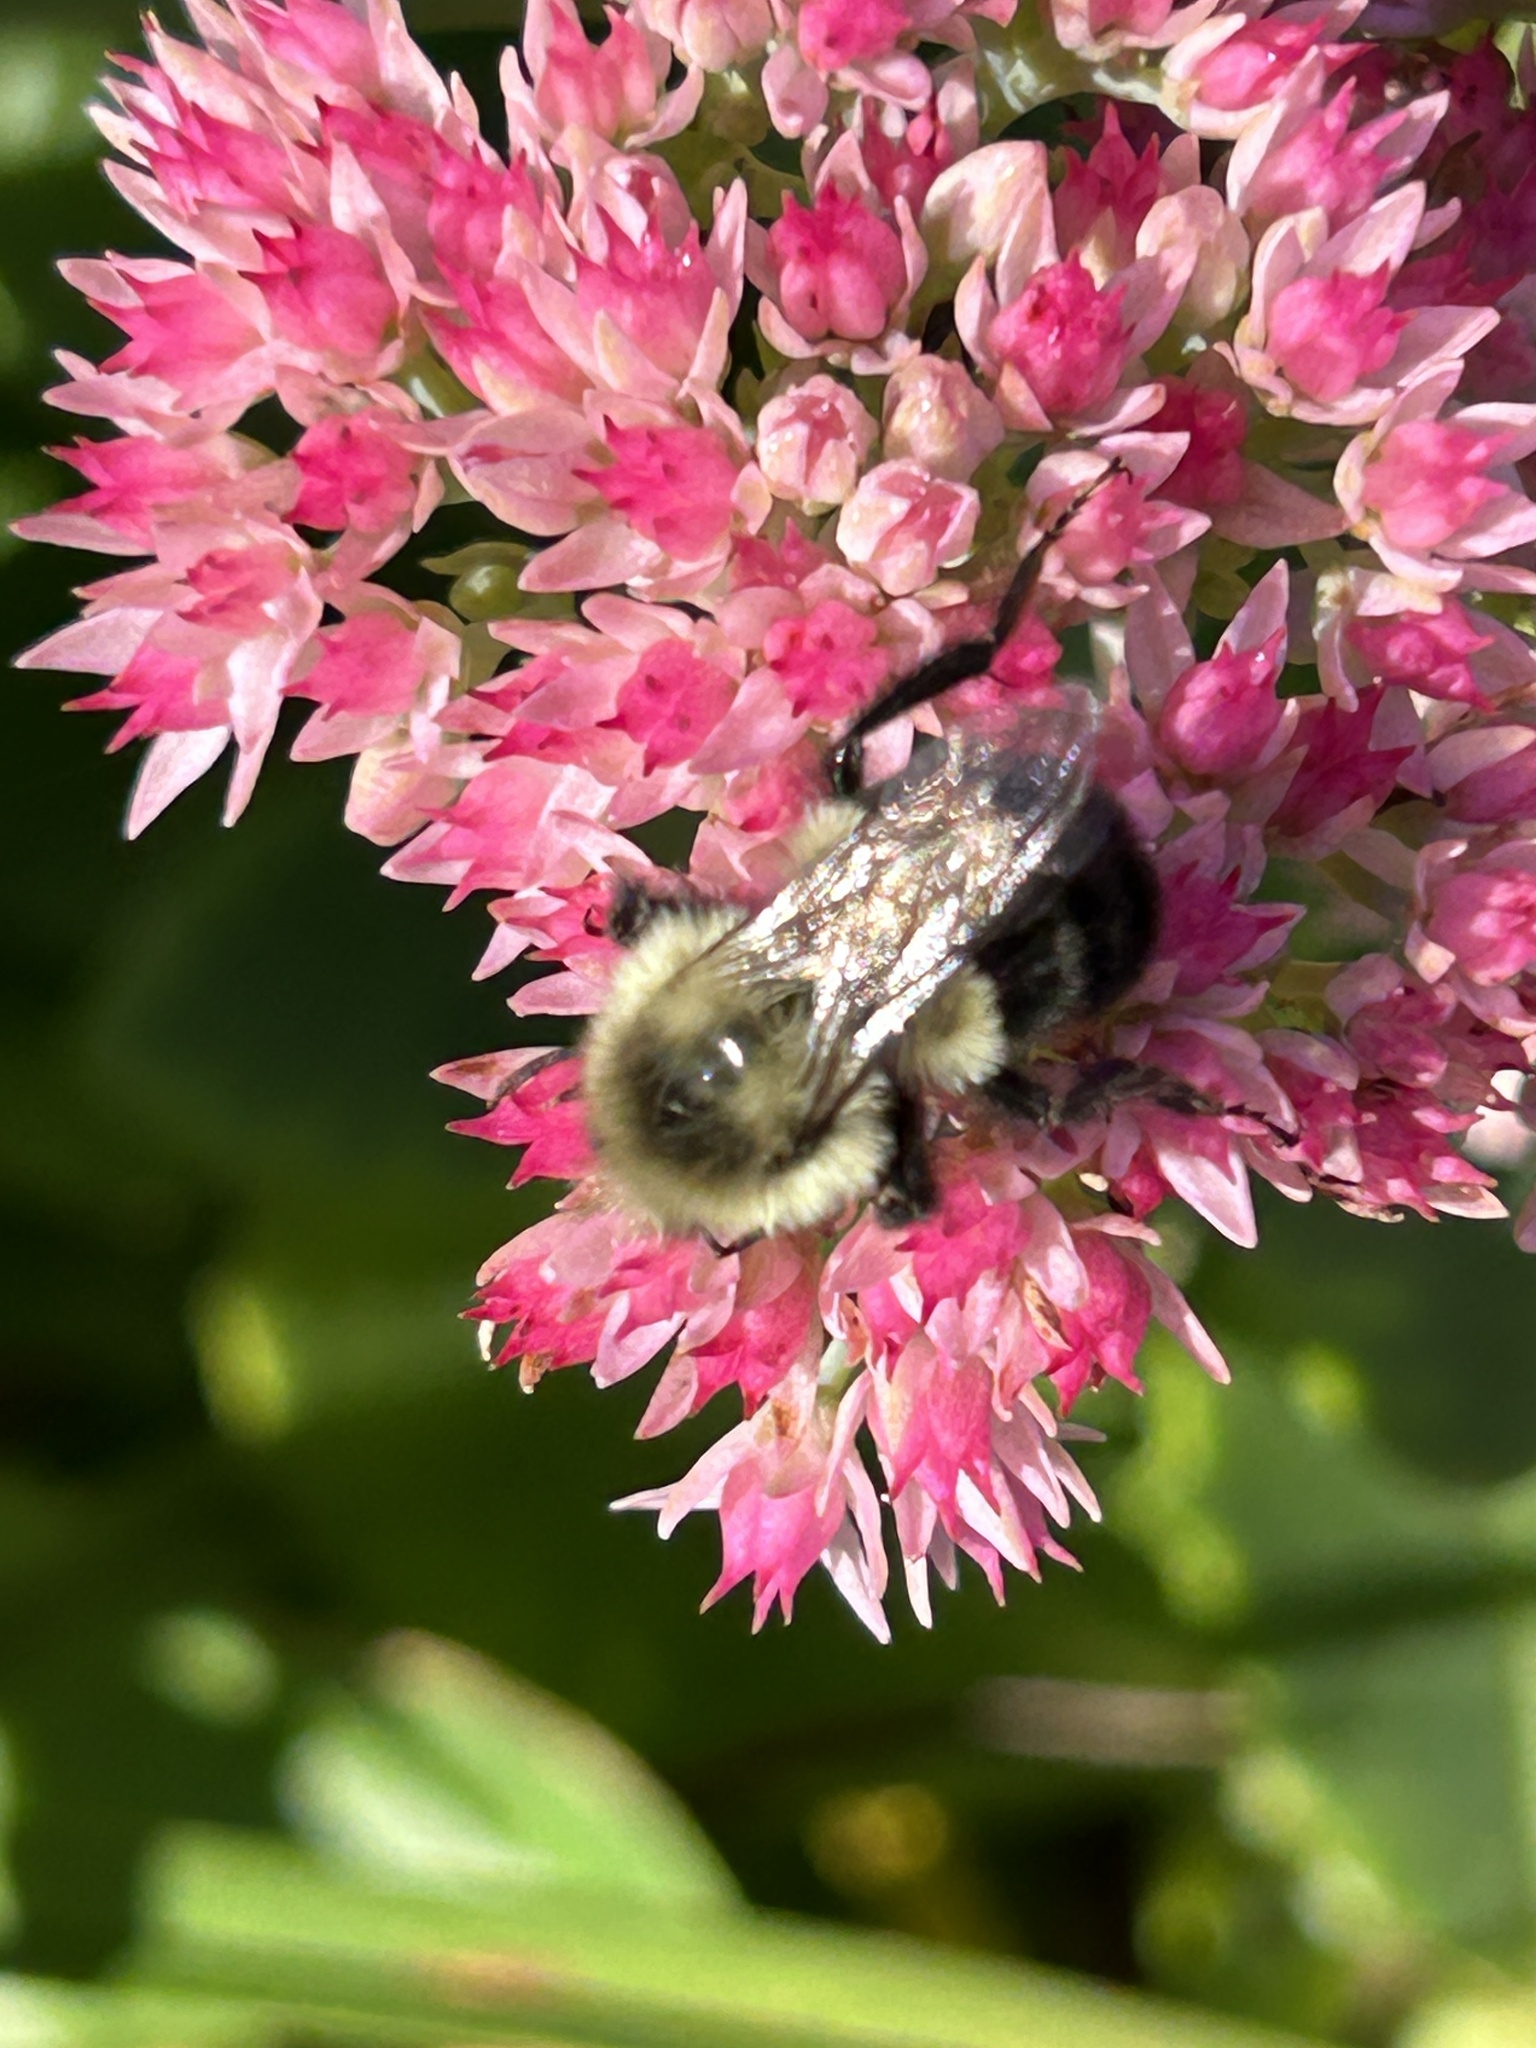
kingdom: Animalia
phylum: Arthropoda
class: Insecta
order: Hymenoptera
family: Apidae
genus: Bombus
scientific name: Bombus impatiens
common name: Common eastern bumble bee
